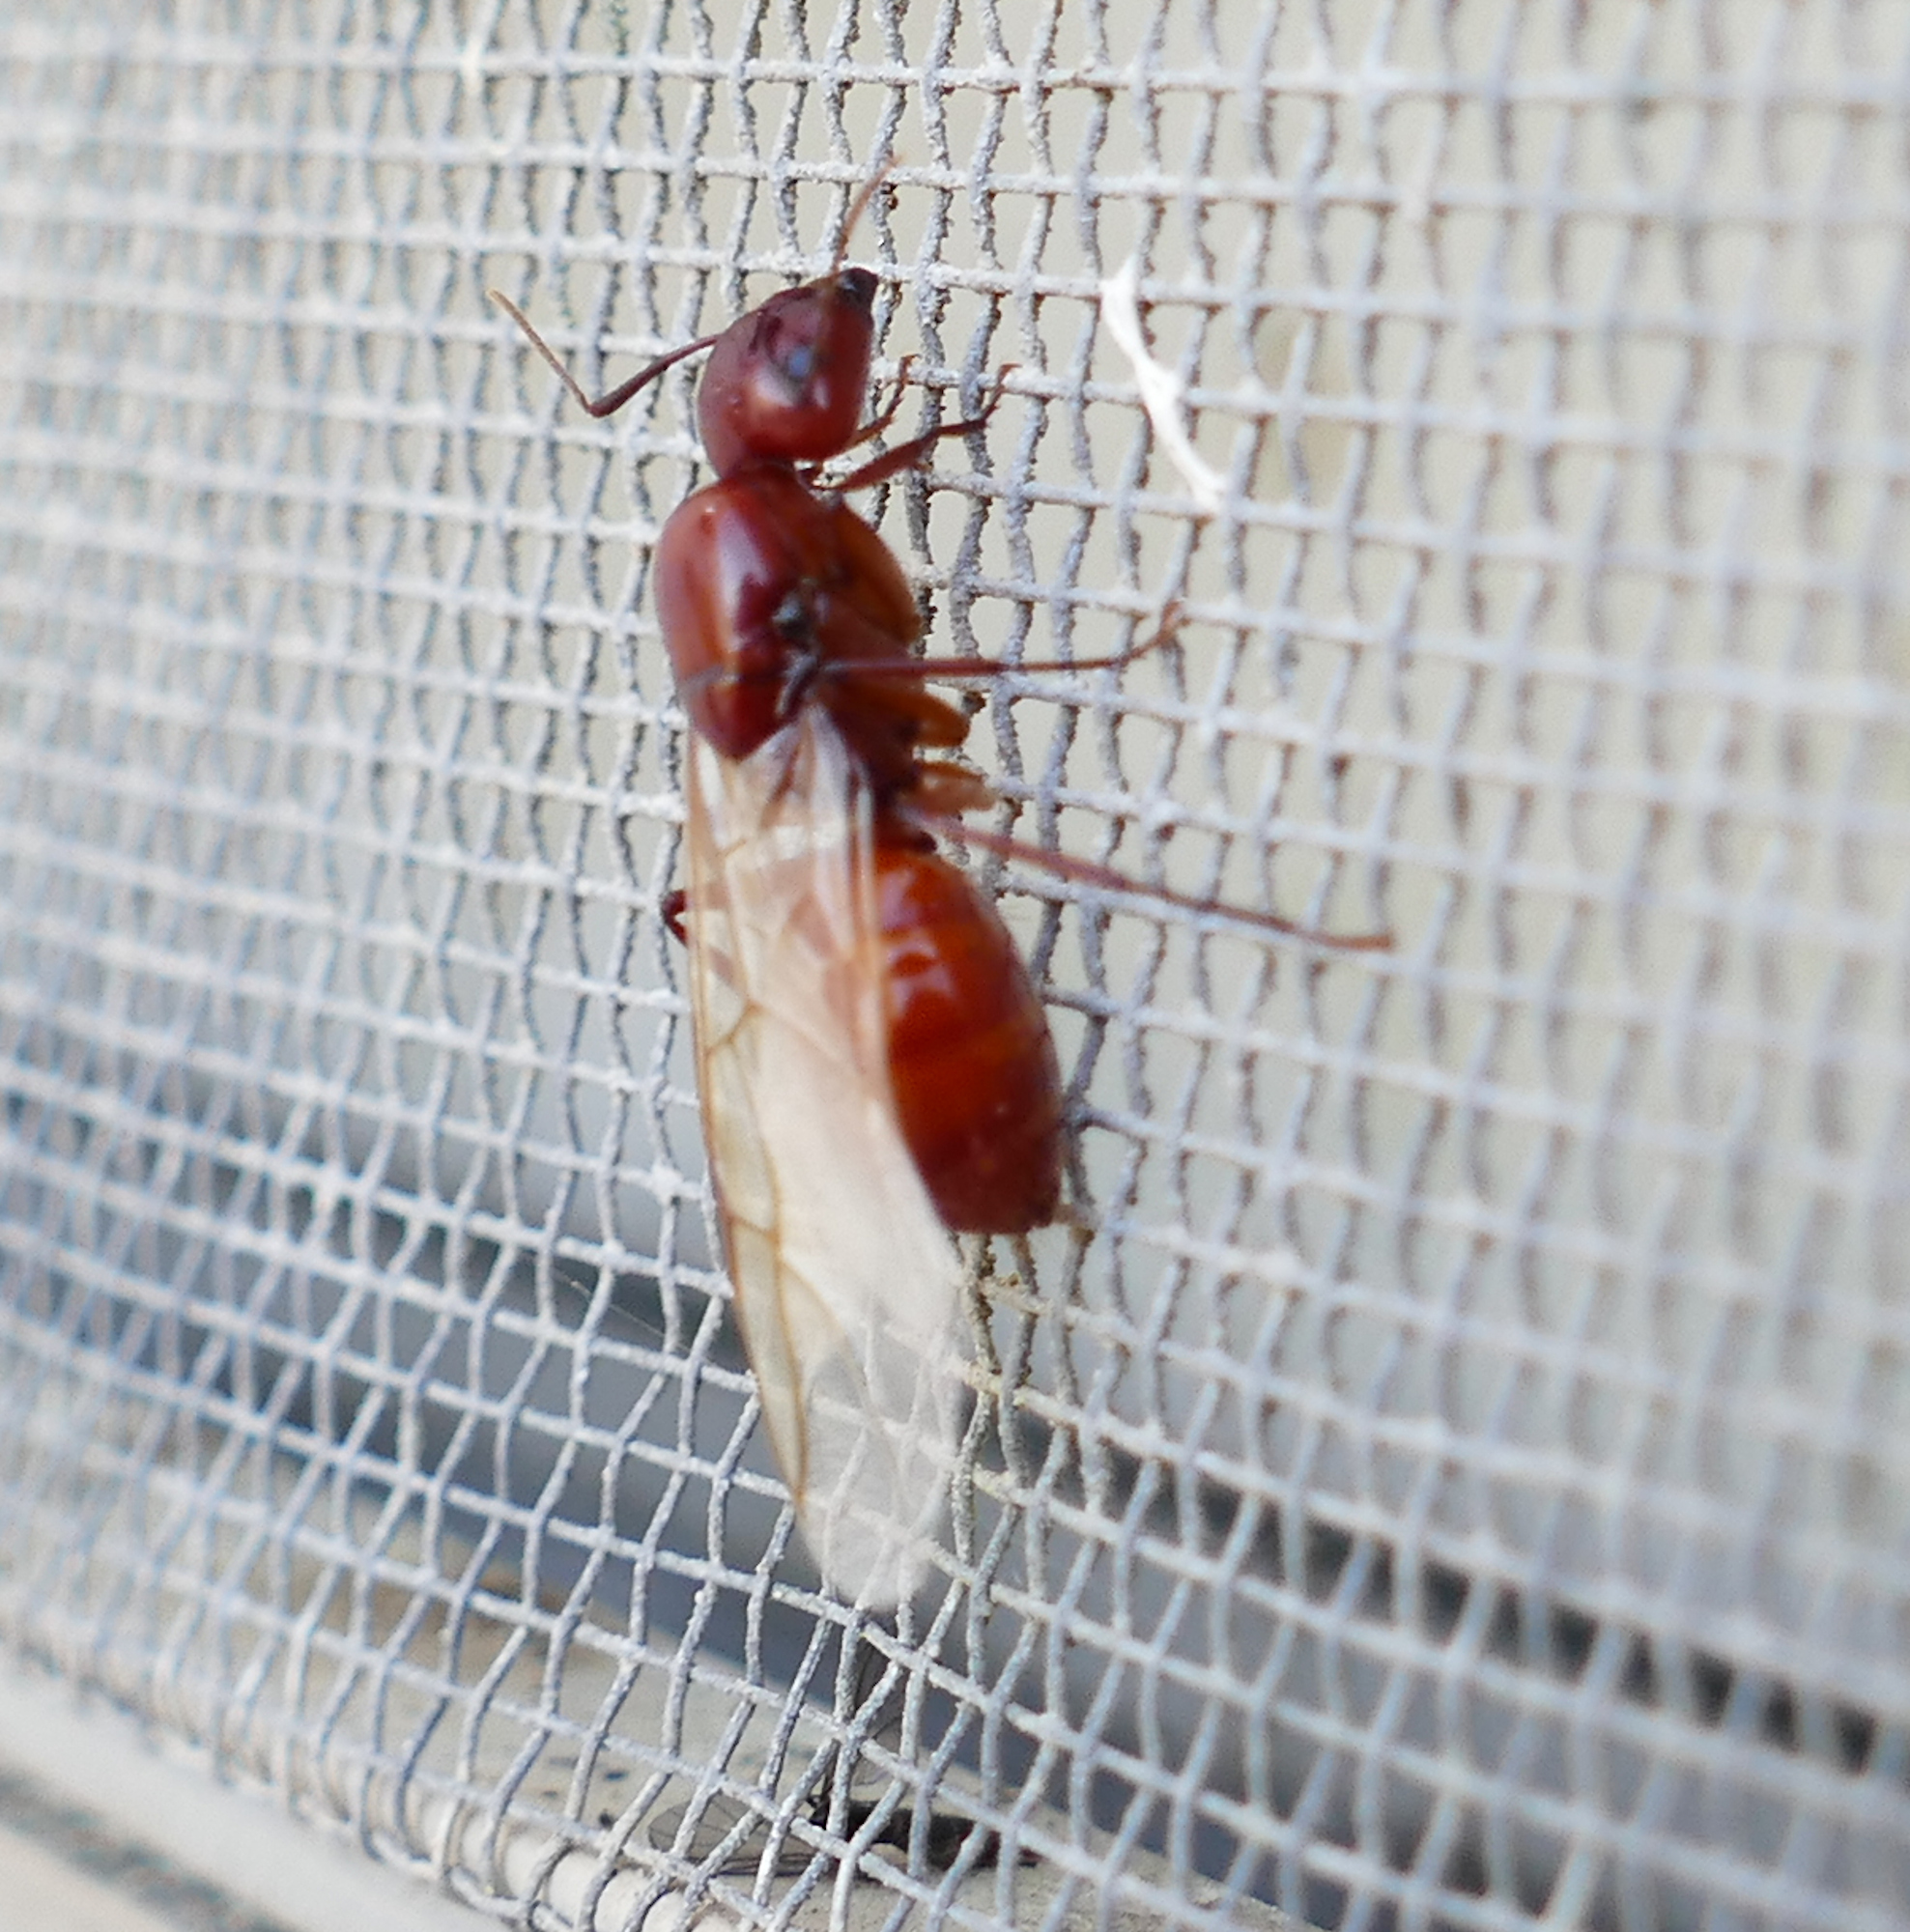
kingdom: Animalia
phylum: Arthropoda
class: Insecta
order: Hymenoptera
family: Formicidae
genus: Camponotus
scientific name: Camponotus castaneus
